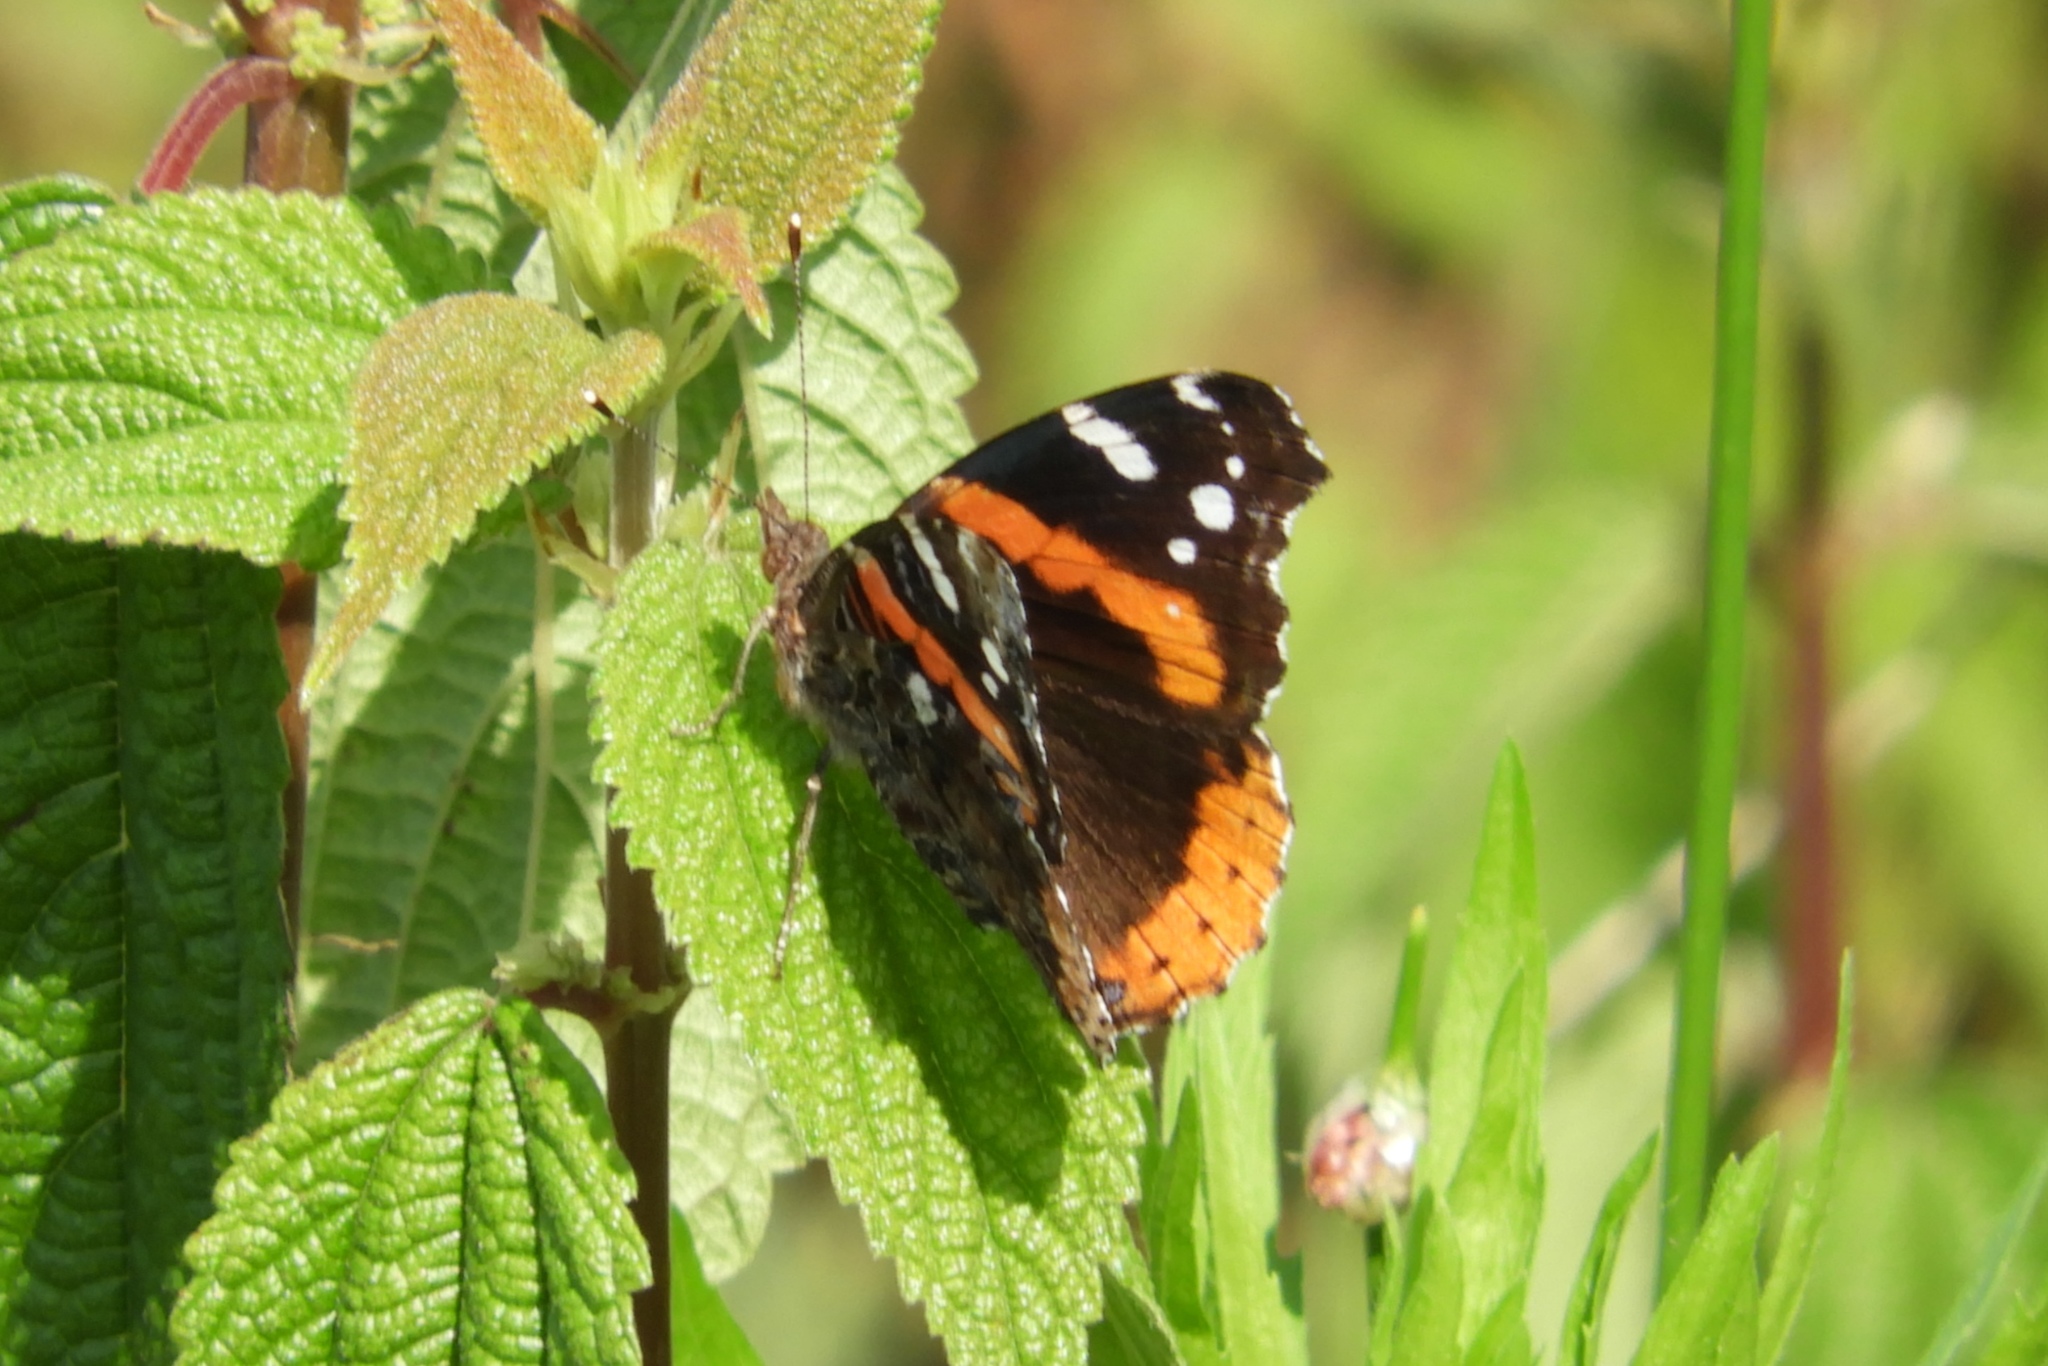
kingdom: Animalia
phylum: Arthropoda
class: Insecta
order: Lepidoptera
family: Nymphalidae
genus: Vanessa
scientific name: Vanessa atalanta
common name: Red admiral
